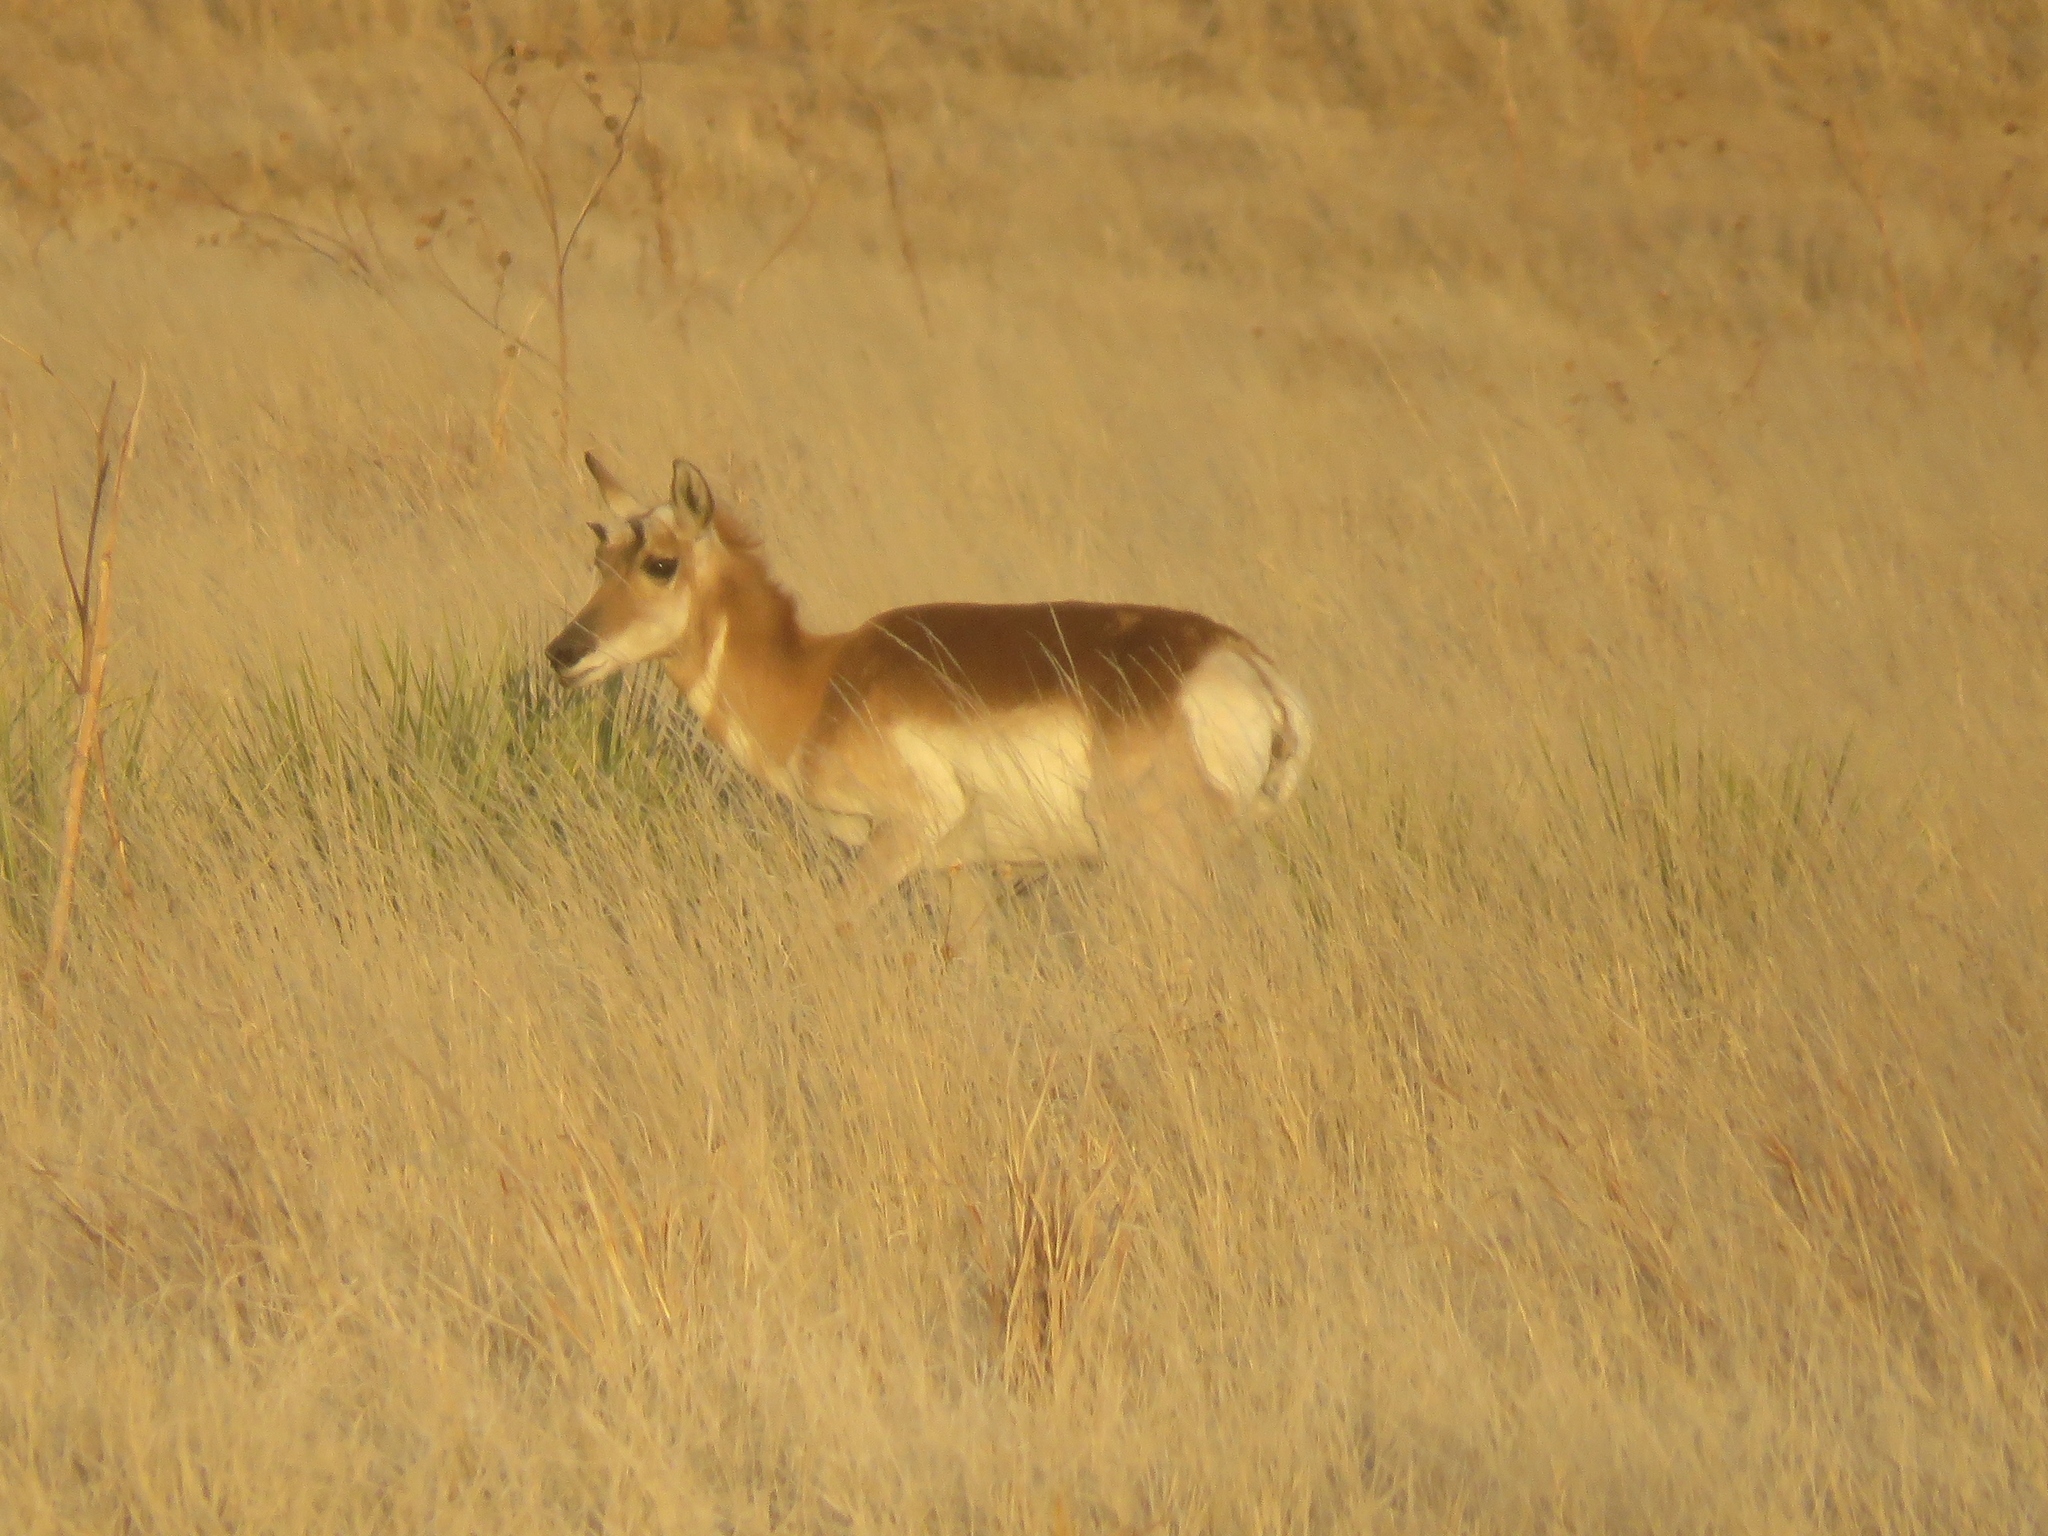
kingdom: Animalia
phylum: Chordata
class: Mammalia
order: Artiodactyla
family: Antilocapridae
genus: Antilocapra
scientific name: Antilocapra americana
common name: Pronghorn
